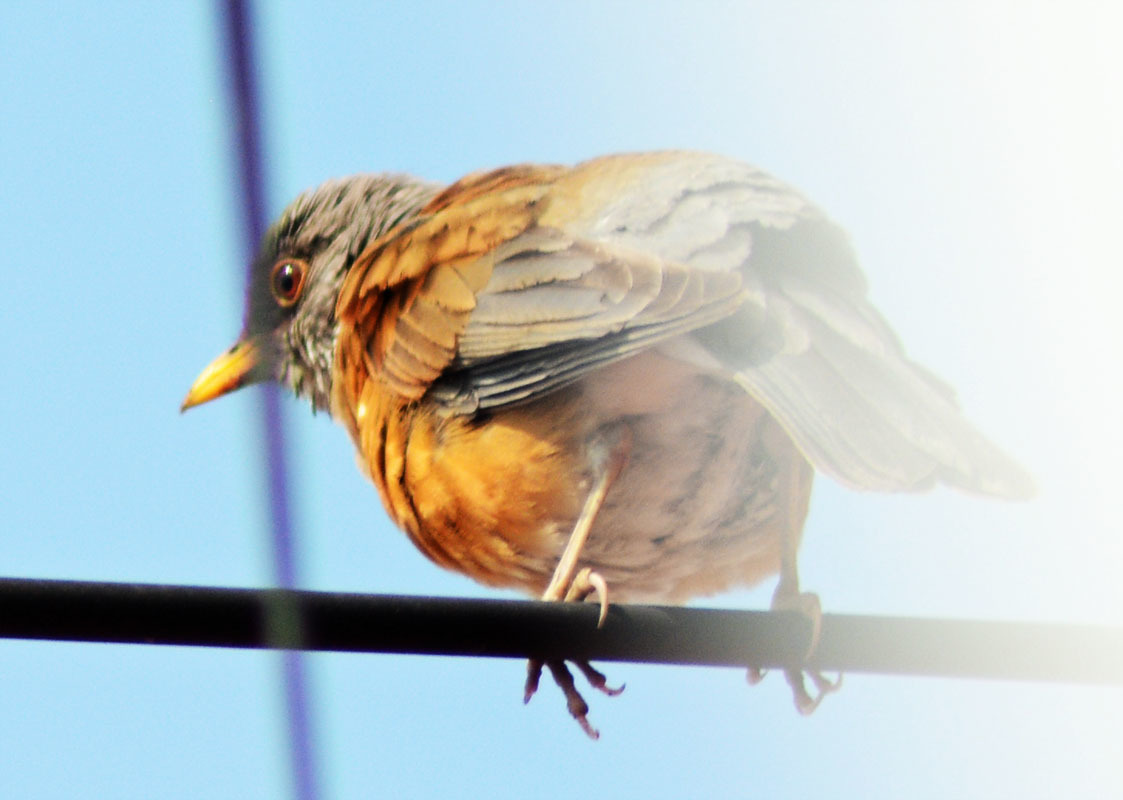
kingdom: Animalia
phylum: Chordata
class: Aves
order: Passeriformes
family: Turdidae
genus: Turdus
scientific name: Turdus rufopalliatus
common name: Rufous-backed robin
